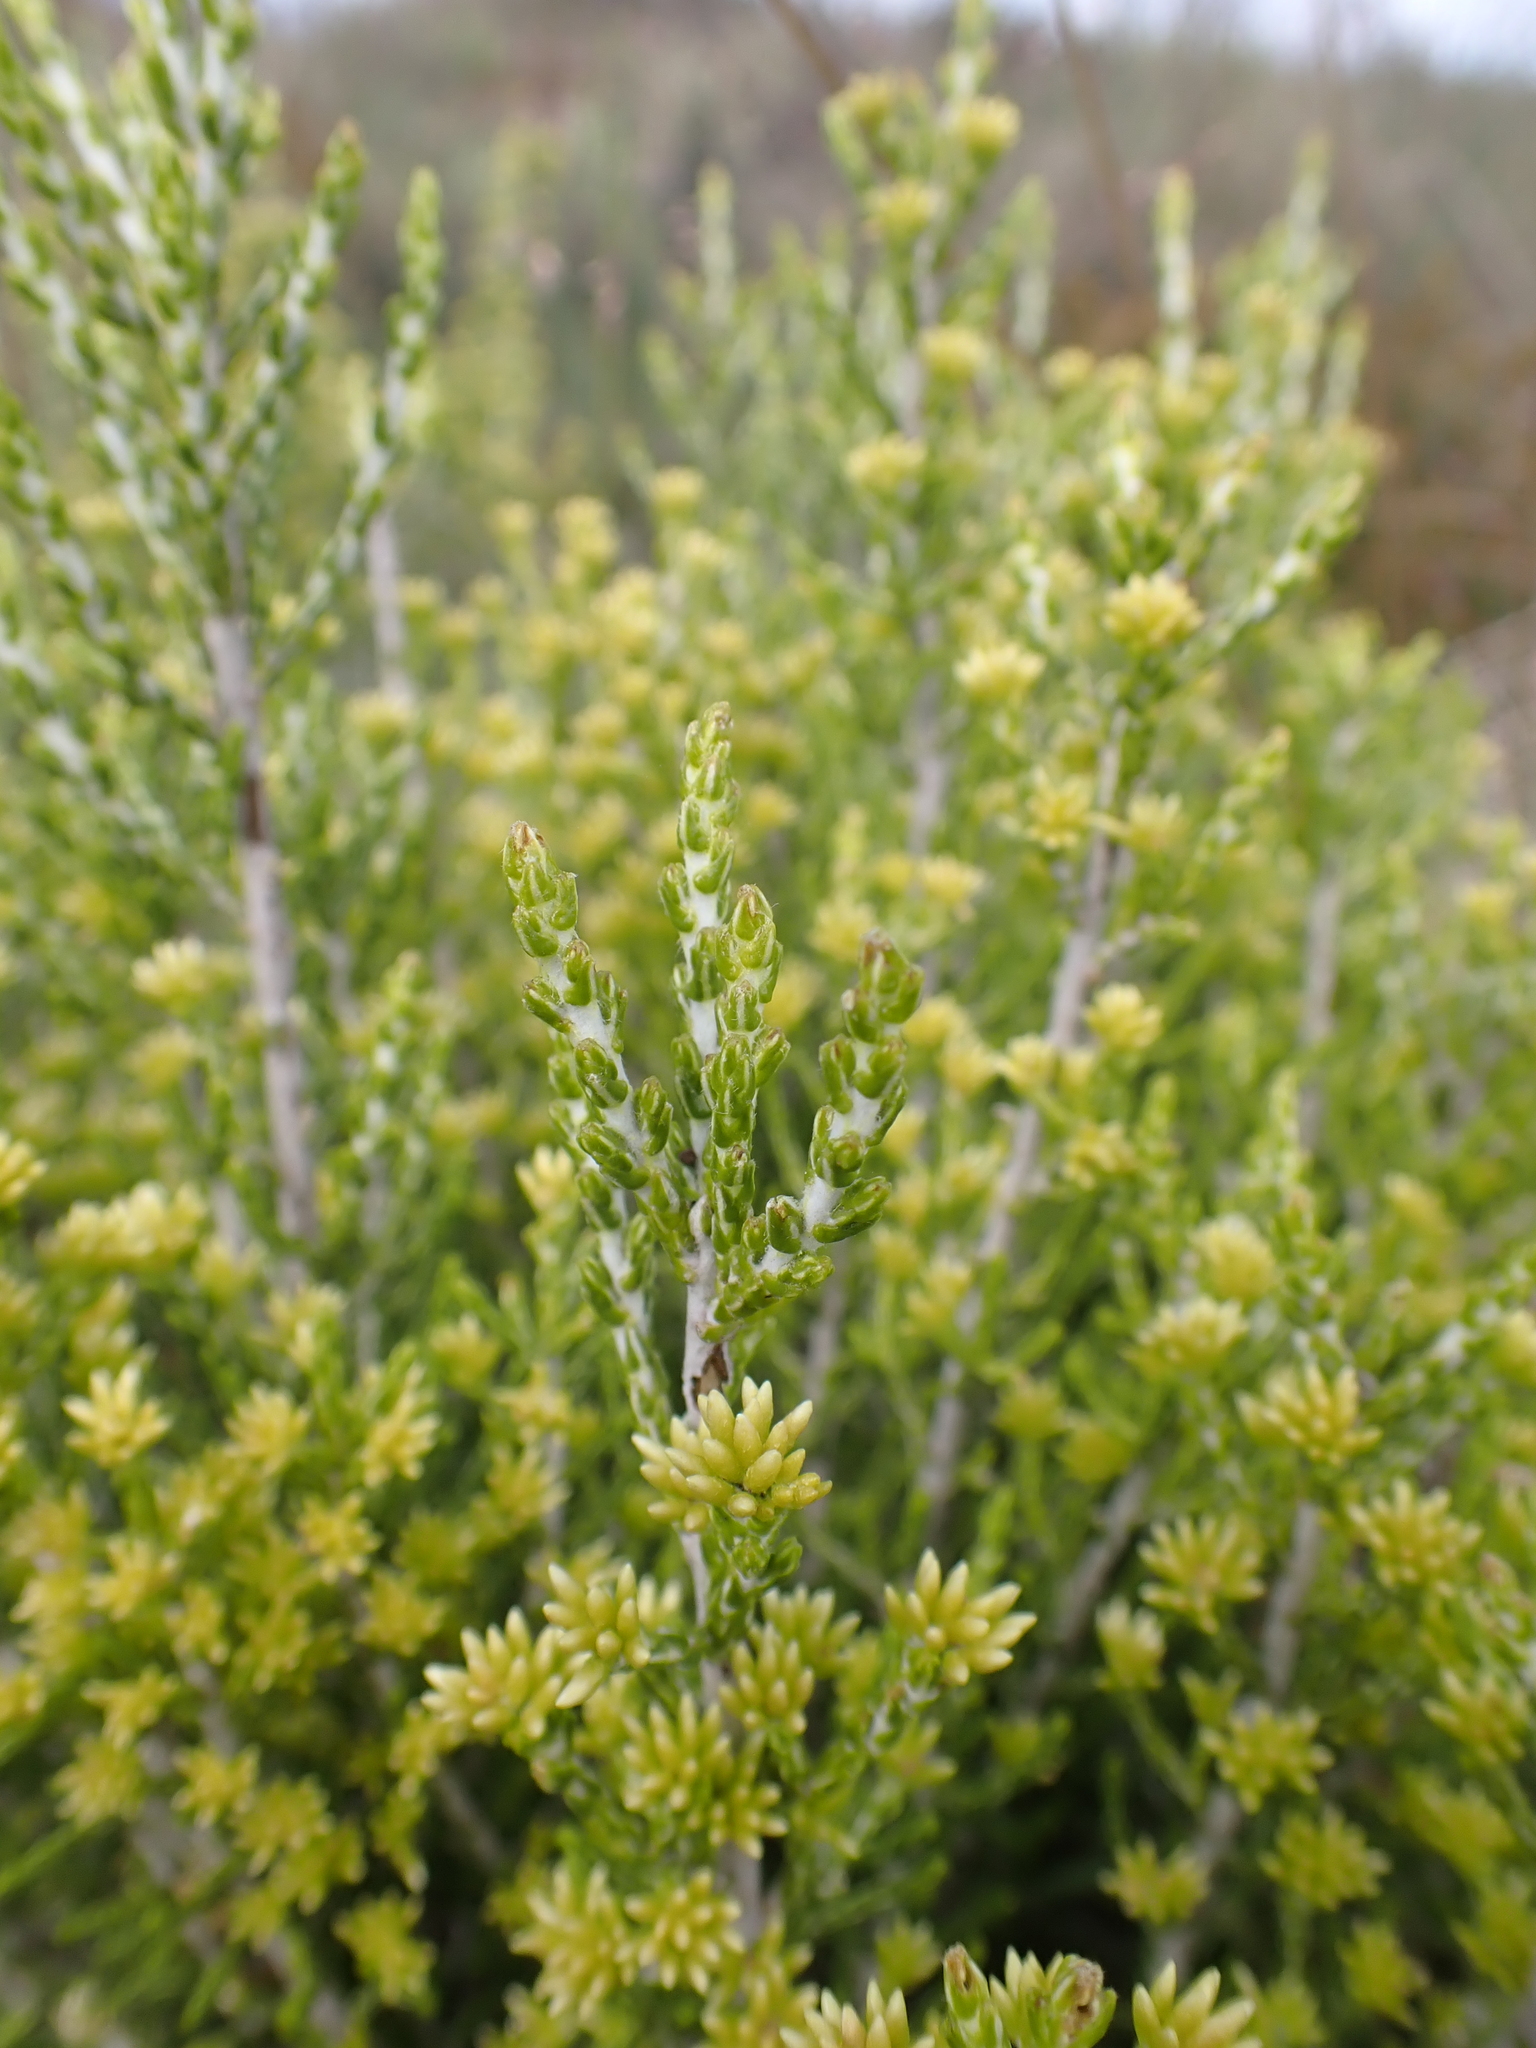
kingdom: Plantae
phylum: Tracheophyta
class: Magnoliopsida
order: Asterales
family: Asteraceae
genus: Ozothamnus
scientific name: Ozothamnus cupressoides
